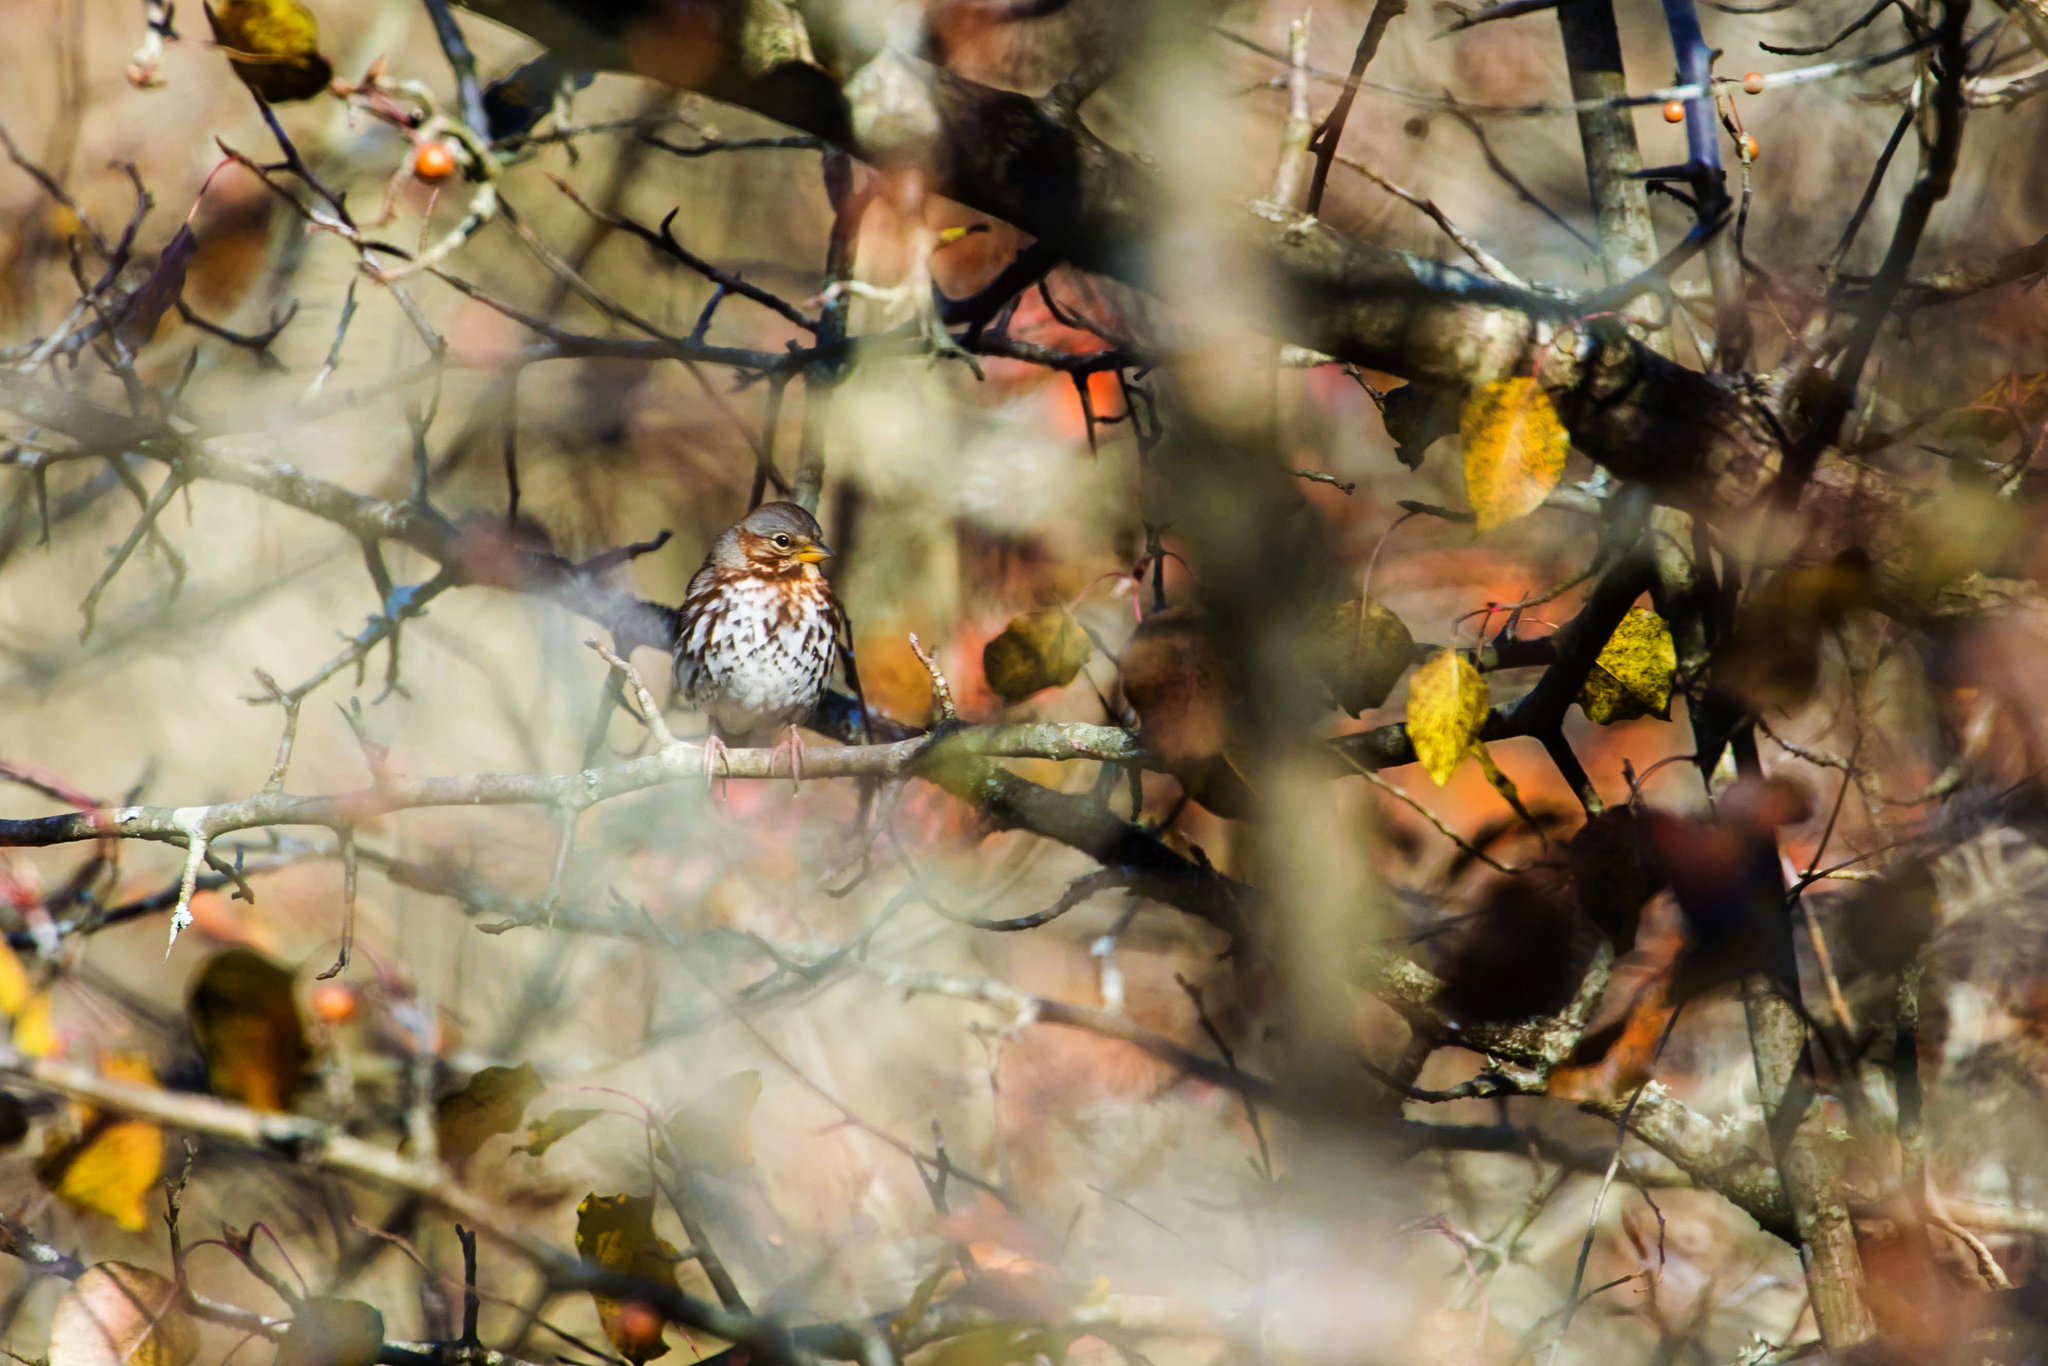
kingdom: Animalia
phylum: Chordata
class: Aves
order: Passeriformes
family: Passerellidae
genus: Passerella
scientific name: Passerella iliaca
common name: Fox sparrow
